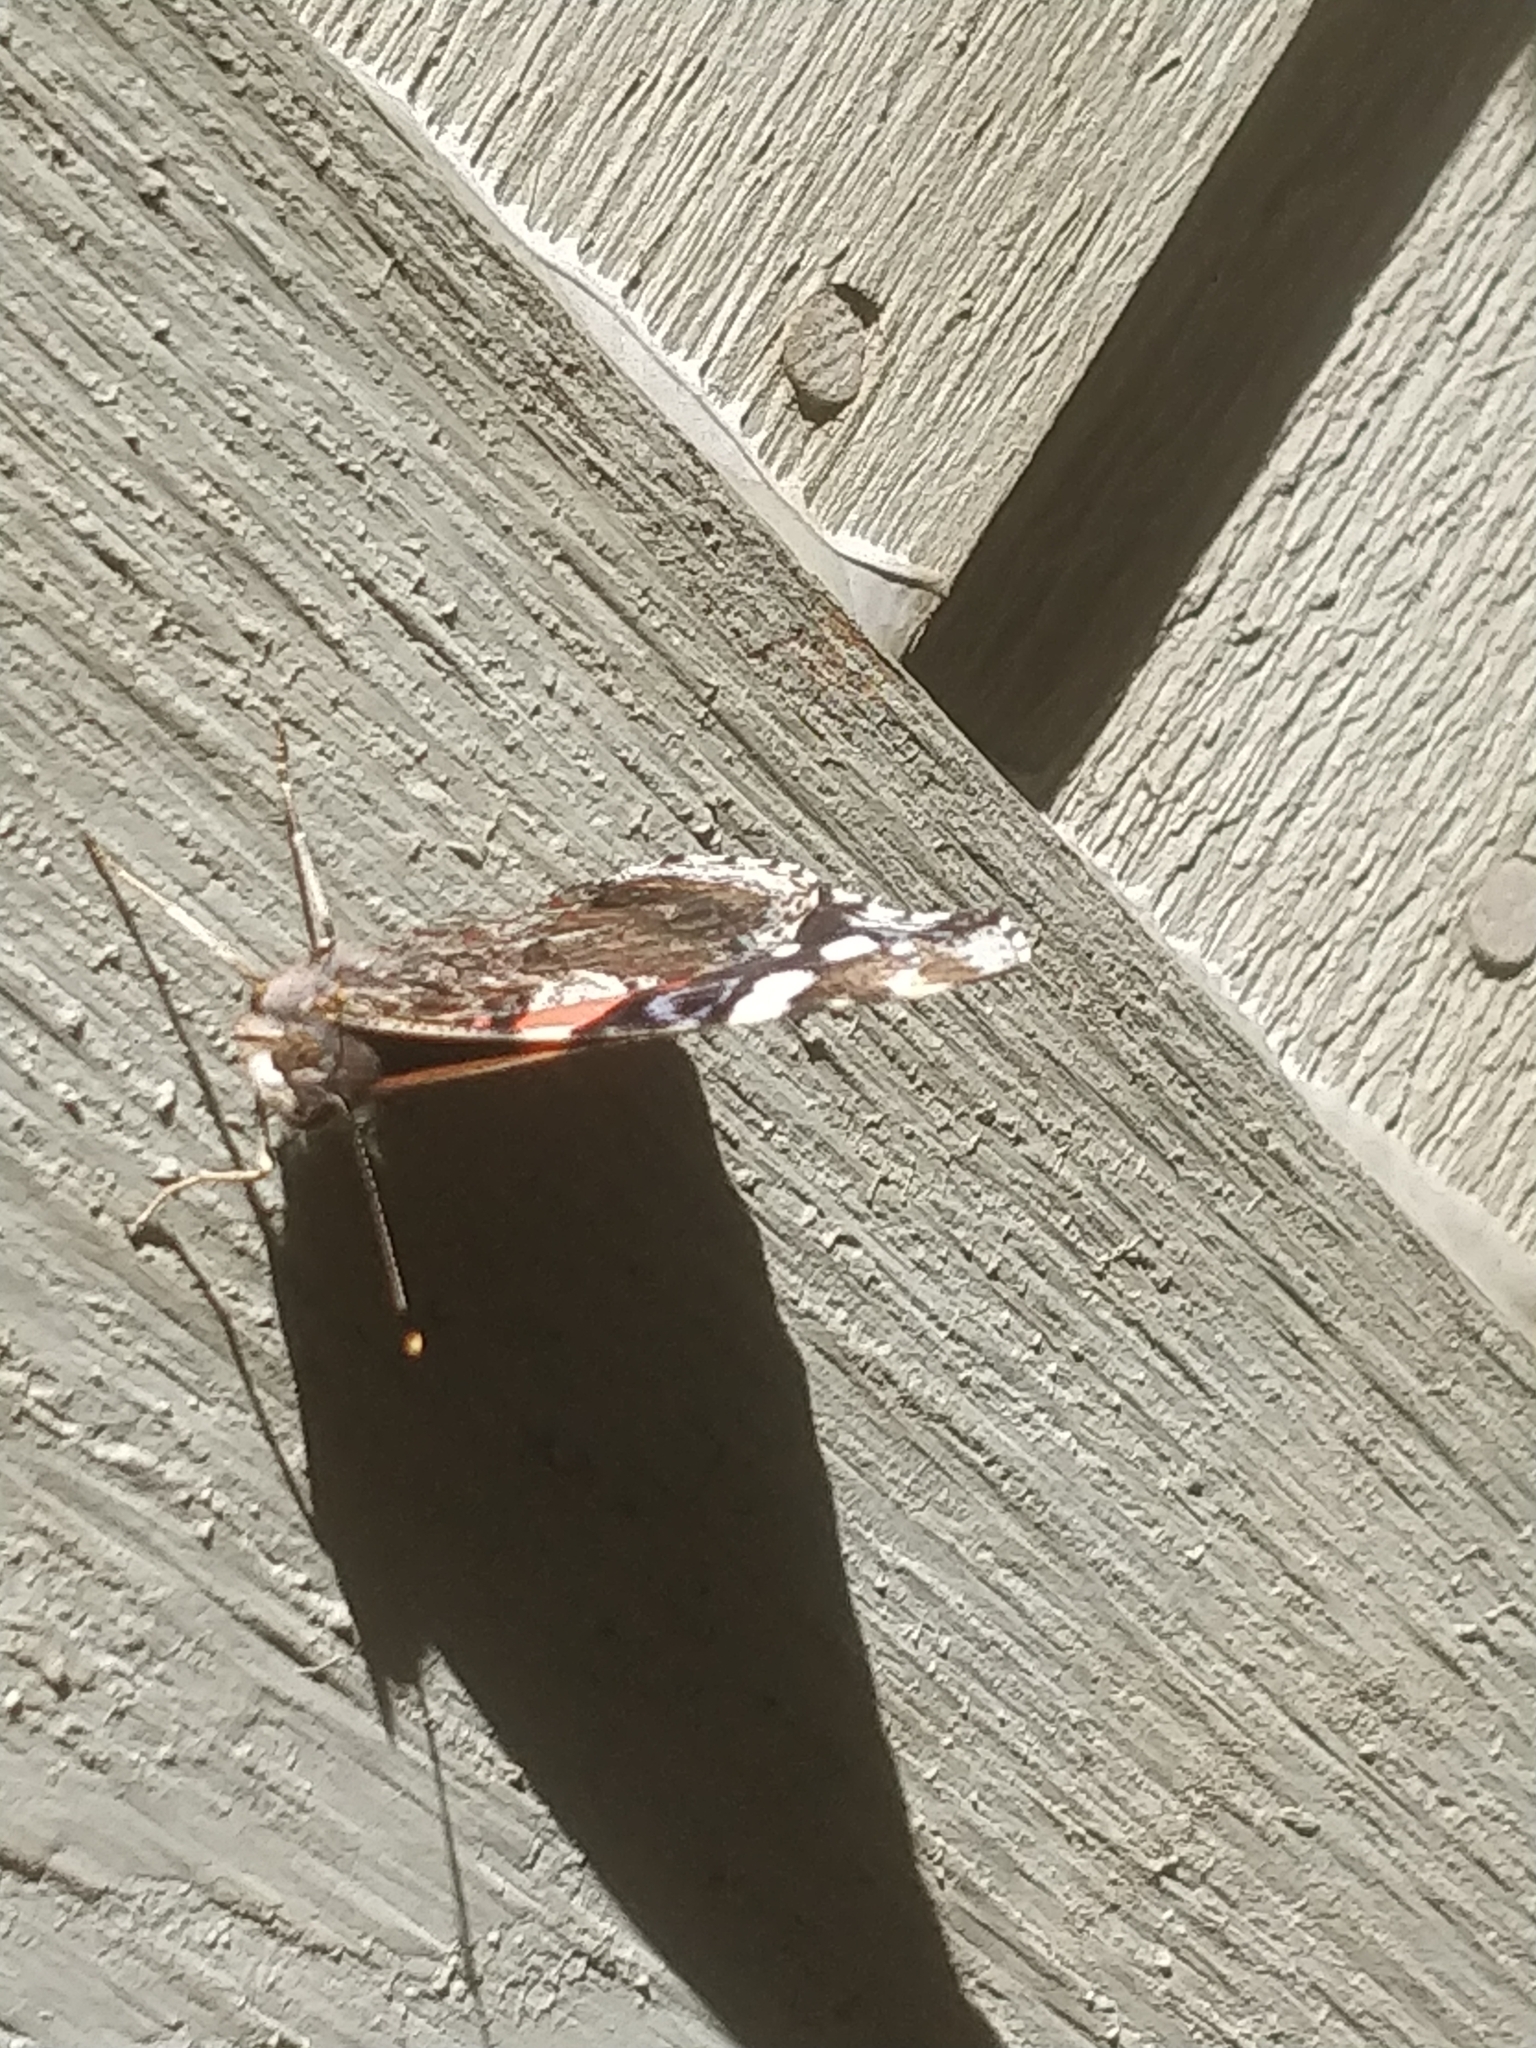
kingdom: Animalia
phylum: Arthropoda
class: Insecta
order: Lepidoptera
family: Nymphalidae
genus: Vanessa
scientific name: Vanessa atalanta
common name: Red admiral
